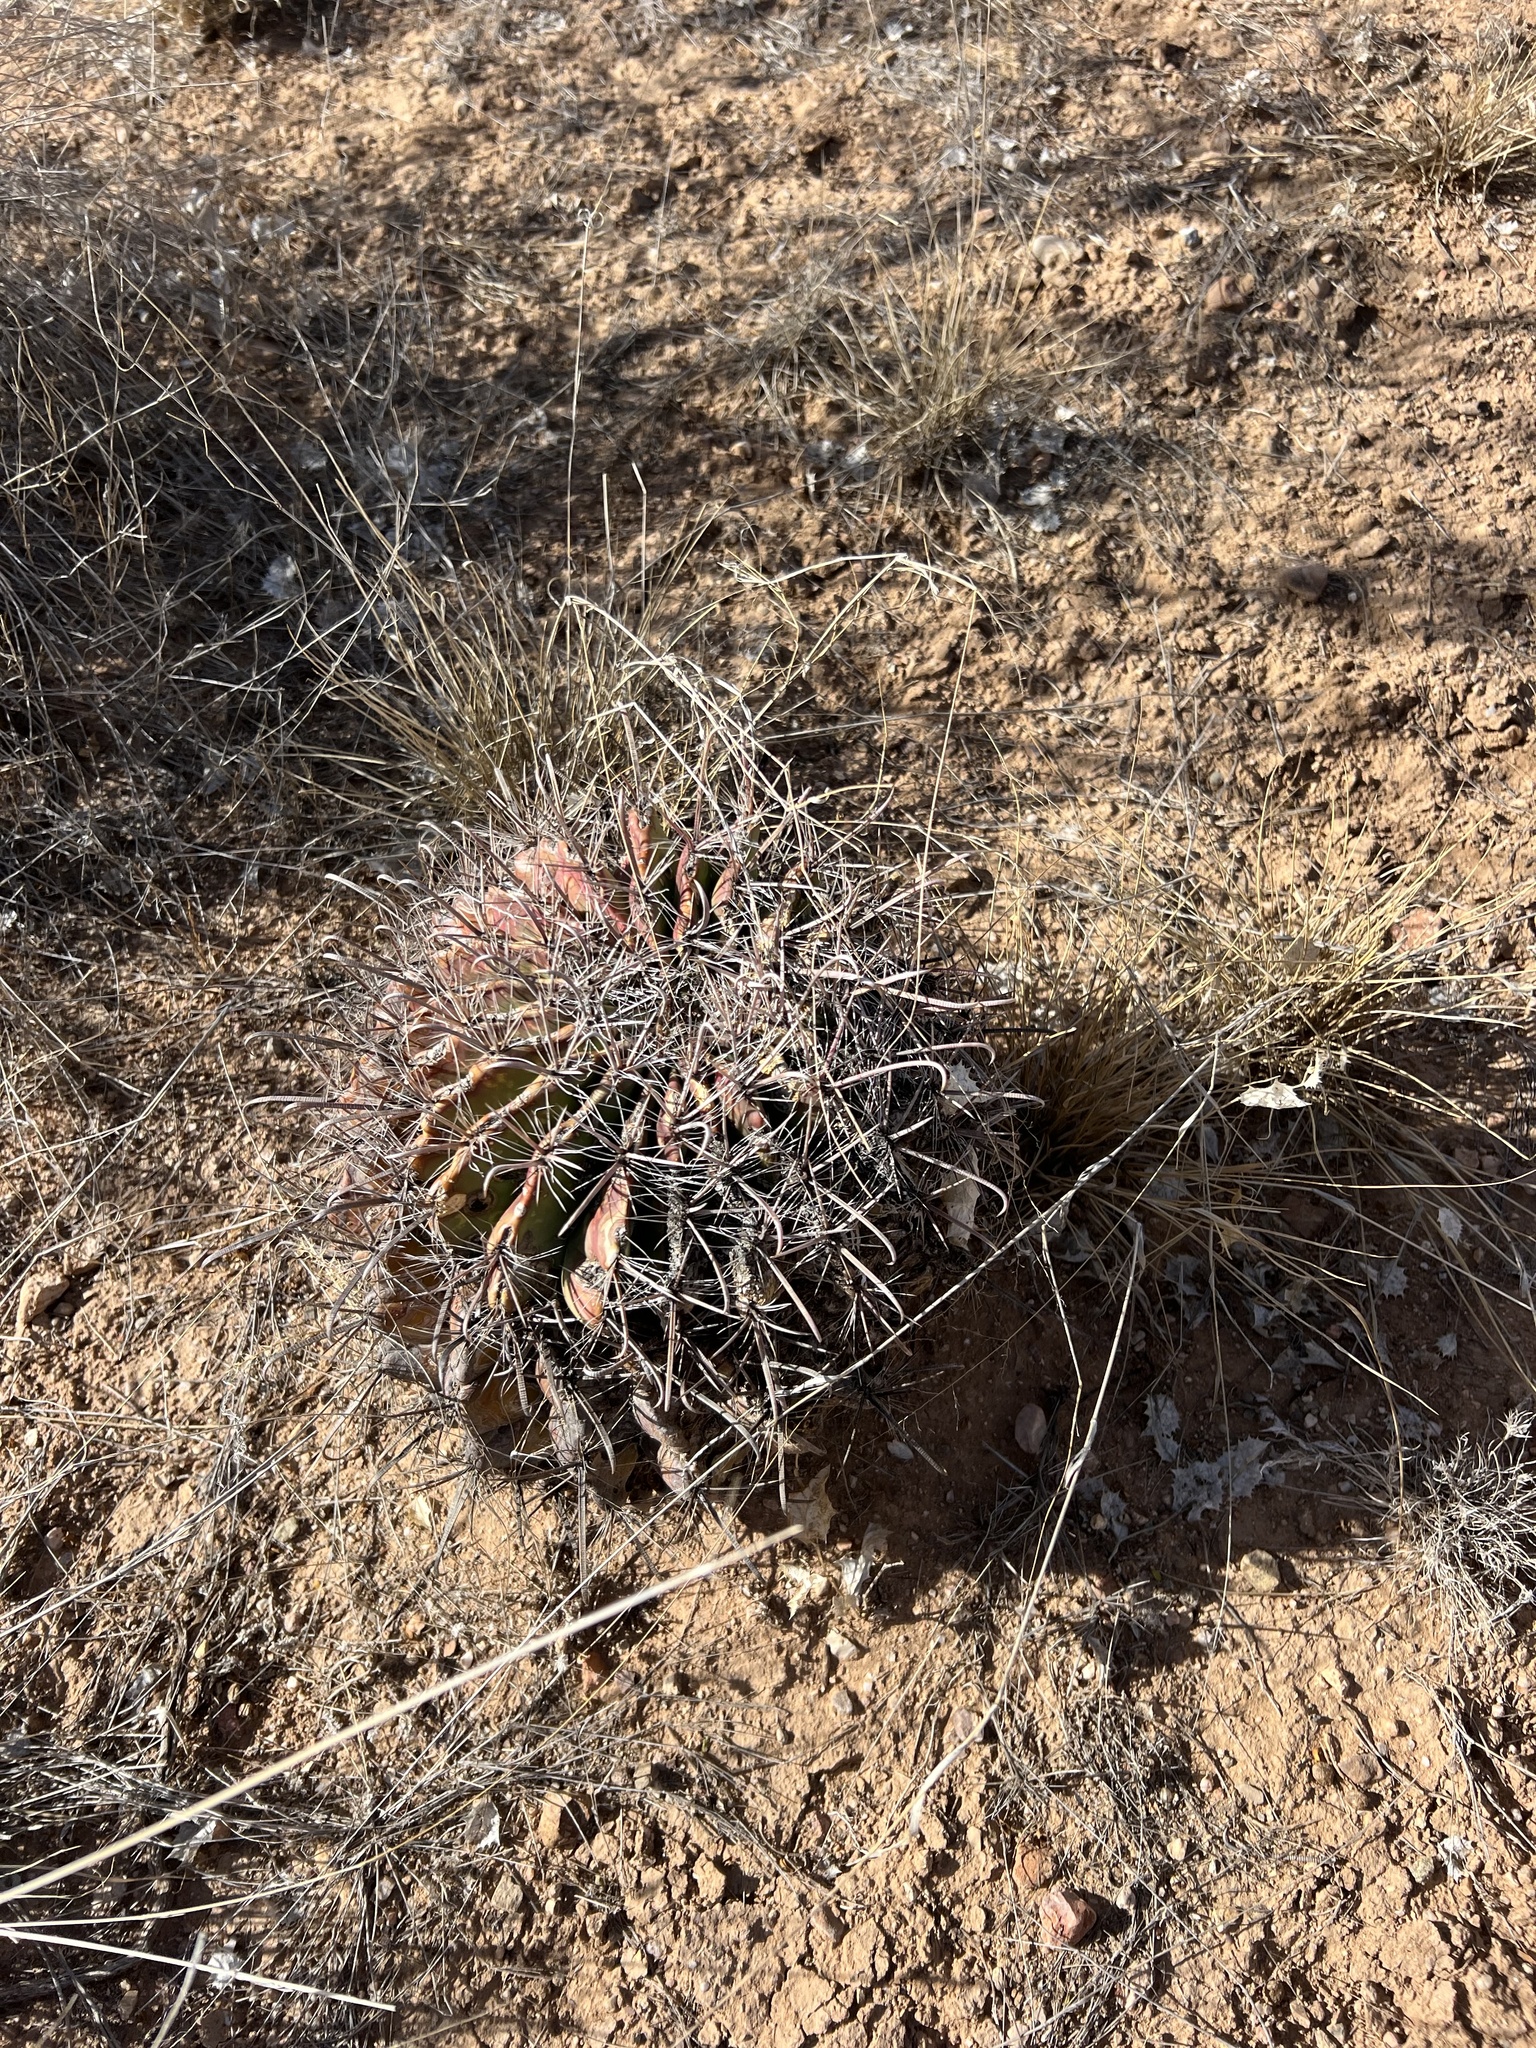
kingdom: Plantae
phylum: Tracheophyta
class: Magnoliopsida
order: Caryophyllales
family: Cactaceae
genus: Ferocactus
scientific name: Ferocactus wislizeni
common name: Candy barrel cactus
